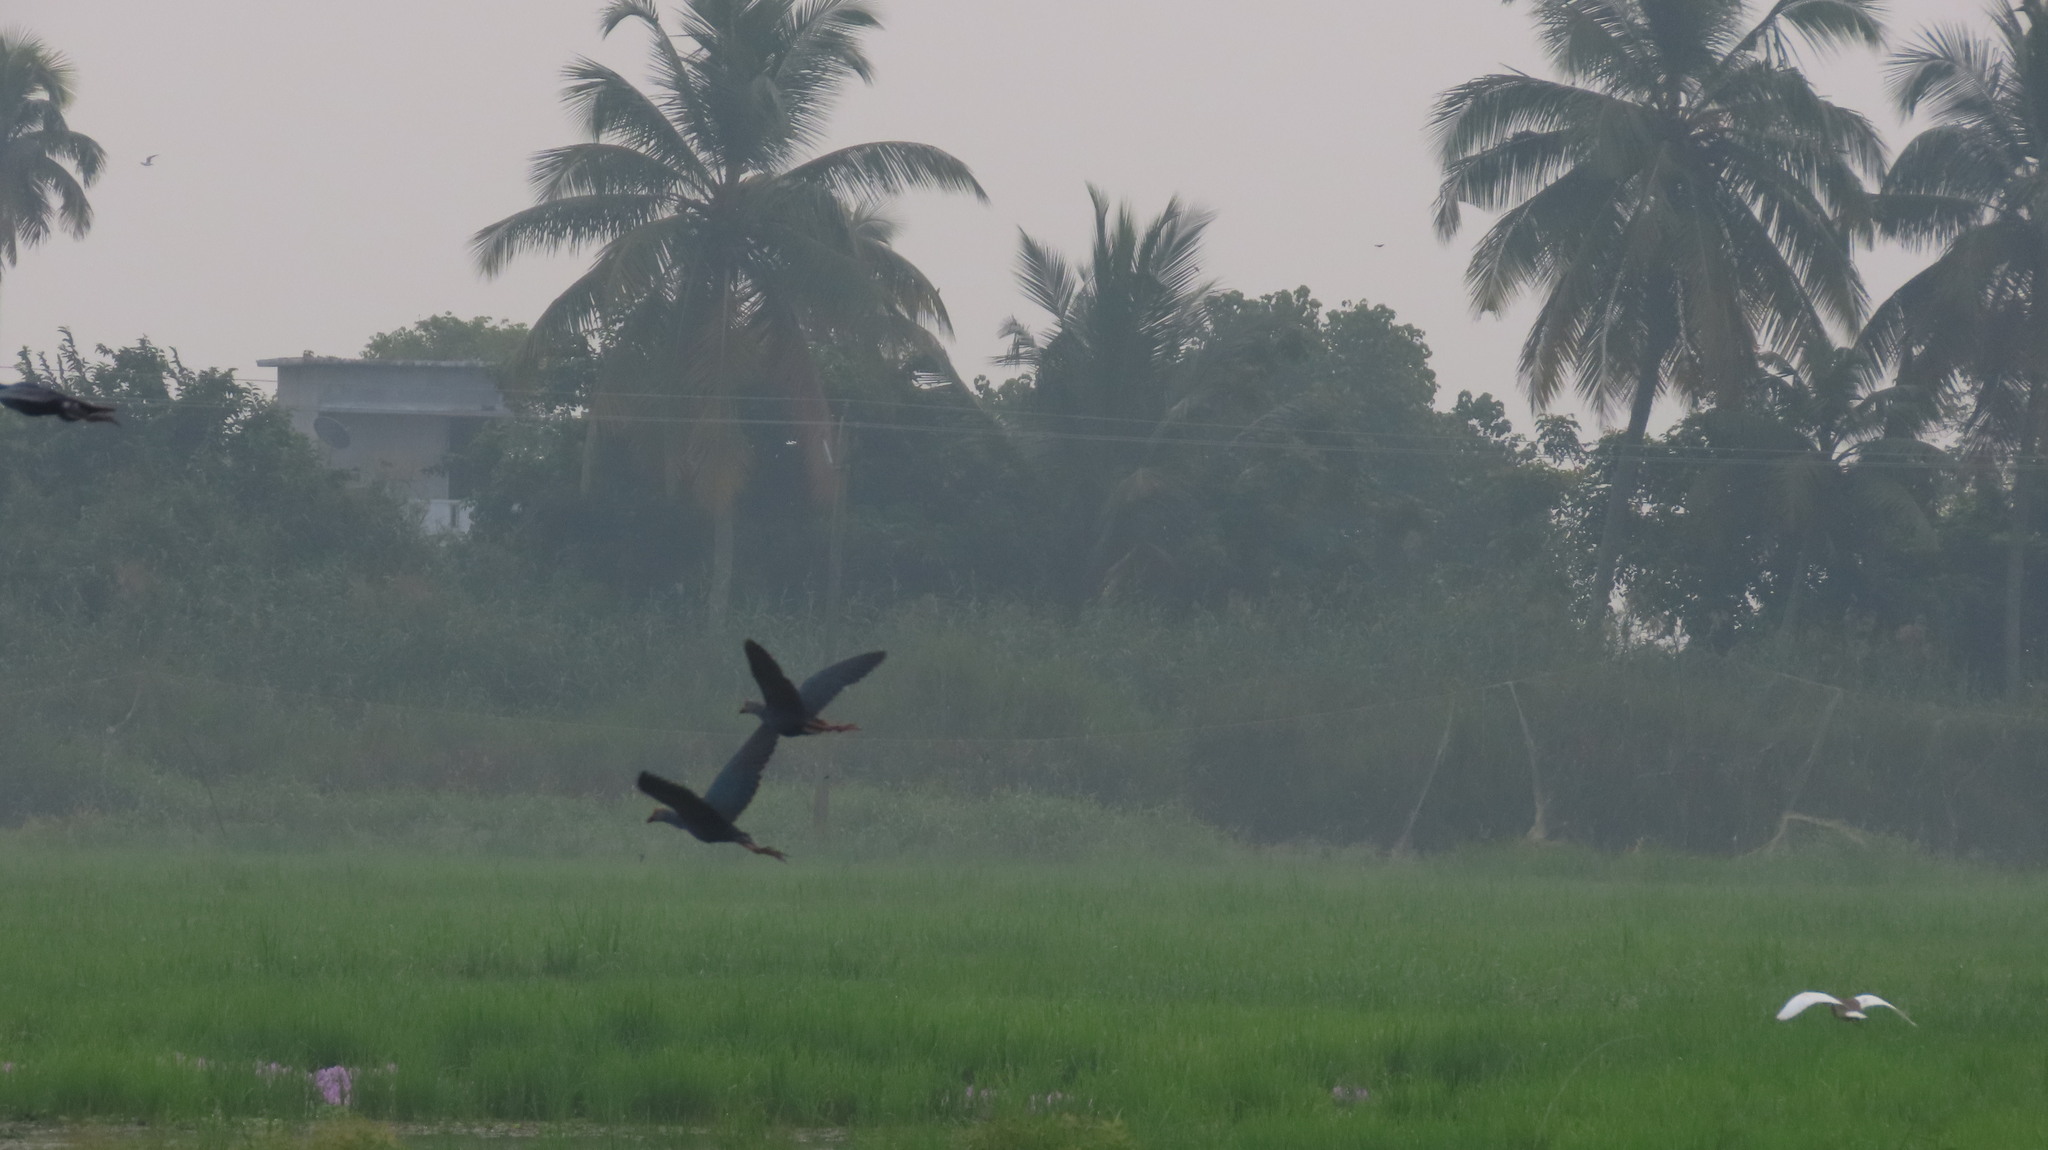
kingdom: Animalia
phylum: Chordata
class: Aves
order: Gruiformes
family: Rallidae
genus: Porphyrio
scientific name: Porphyrio porphyrio
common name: Purple swamphen
